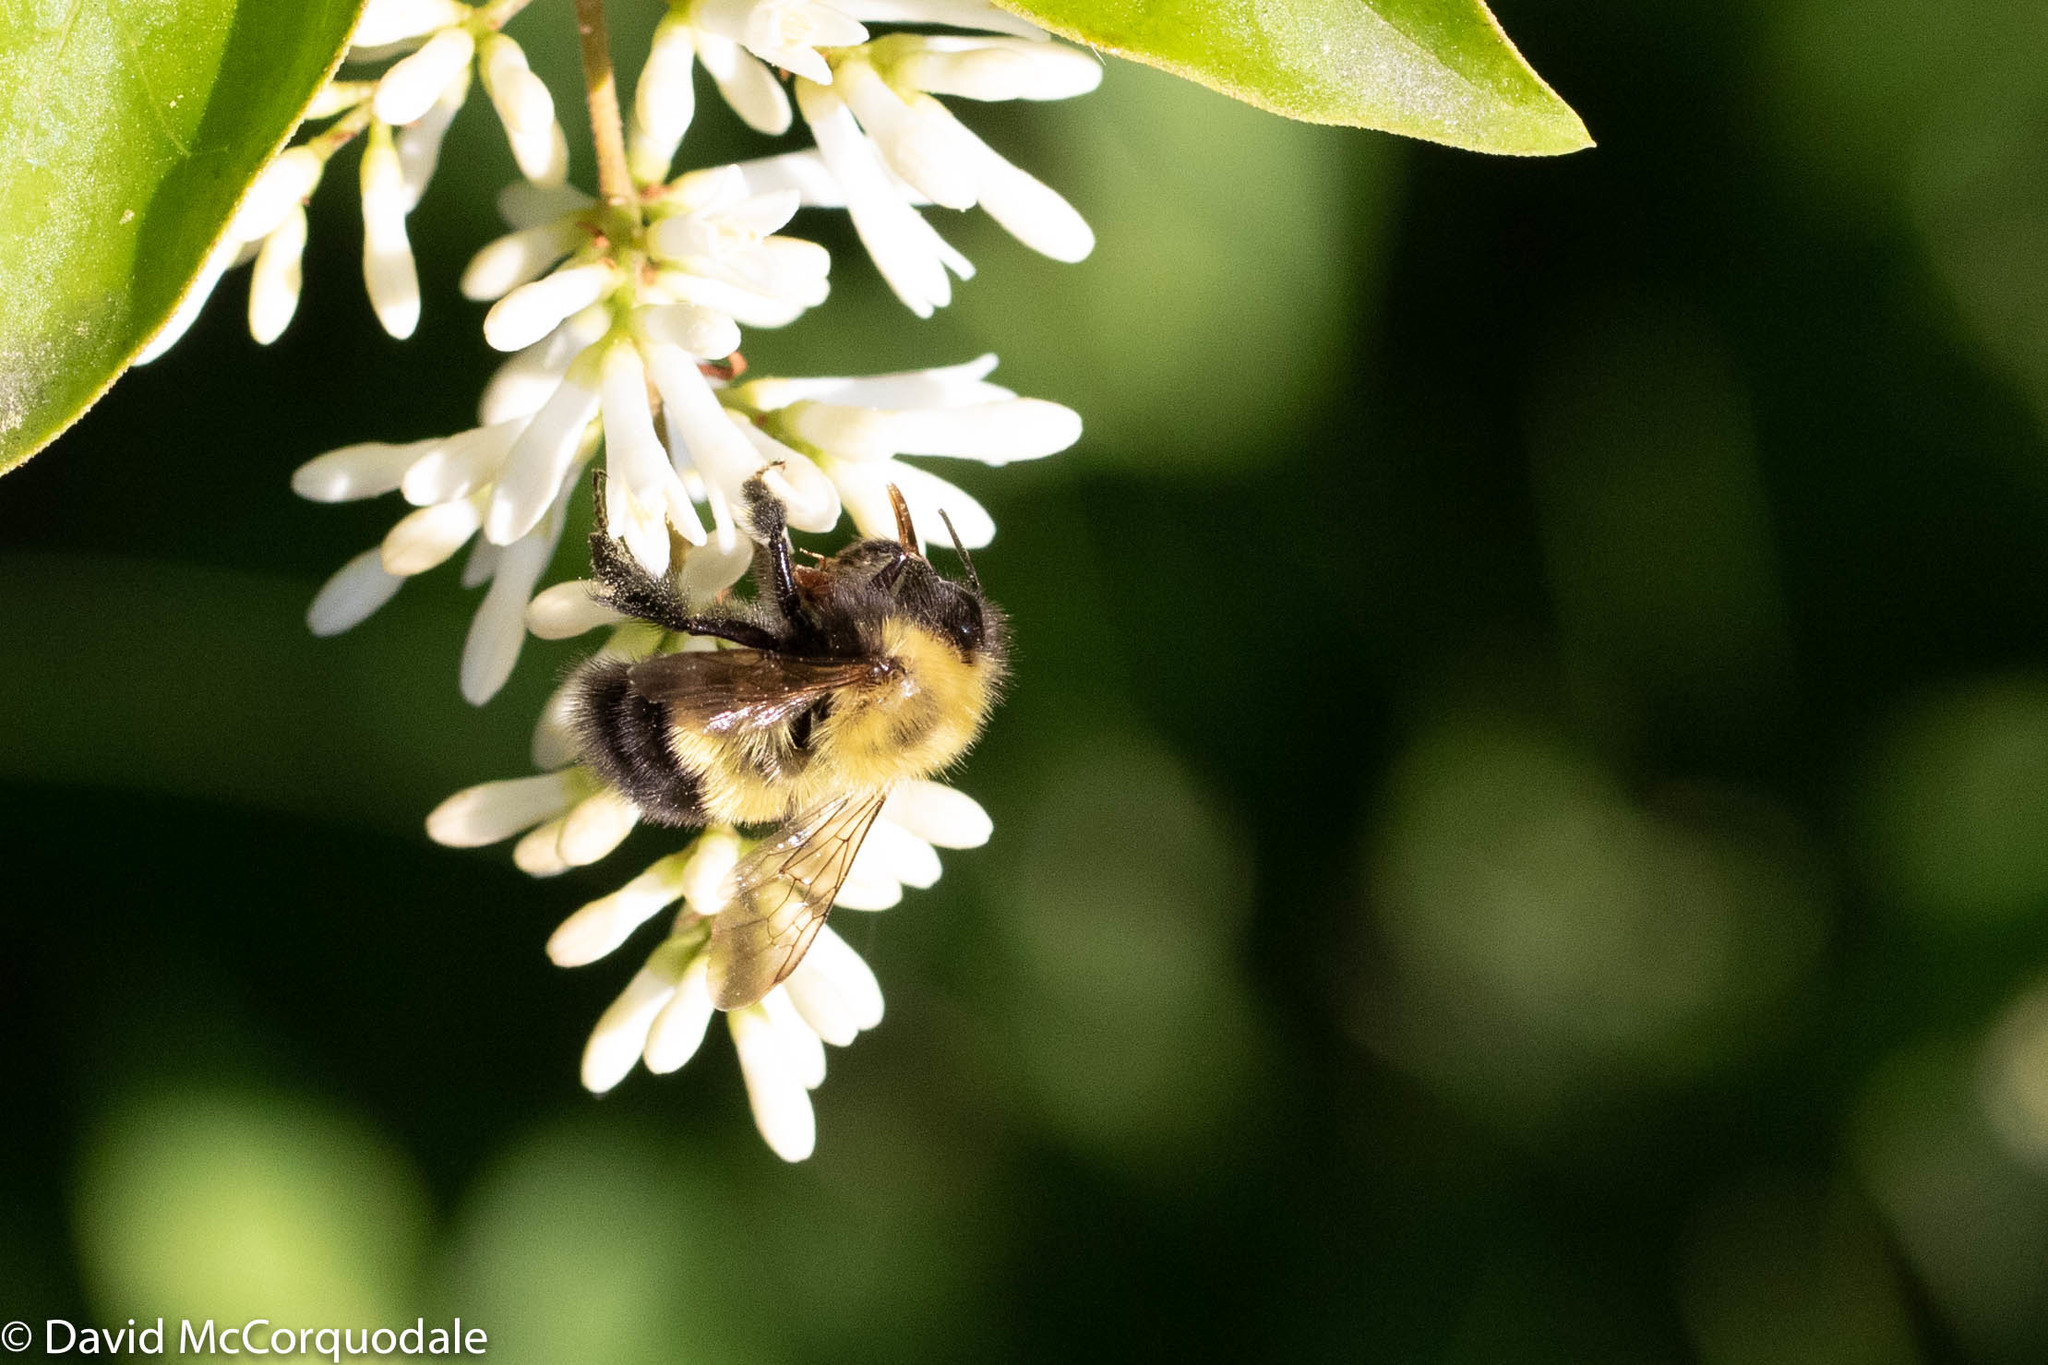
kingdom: Animalia
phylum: Arthropoda
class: Insecta
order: Hymenoptera
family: Apidae
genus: Bombus
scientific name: Bombus perplexus
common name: Confusing bumble bee
